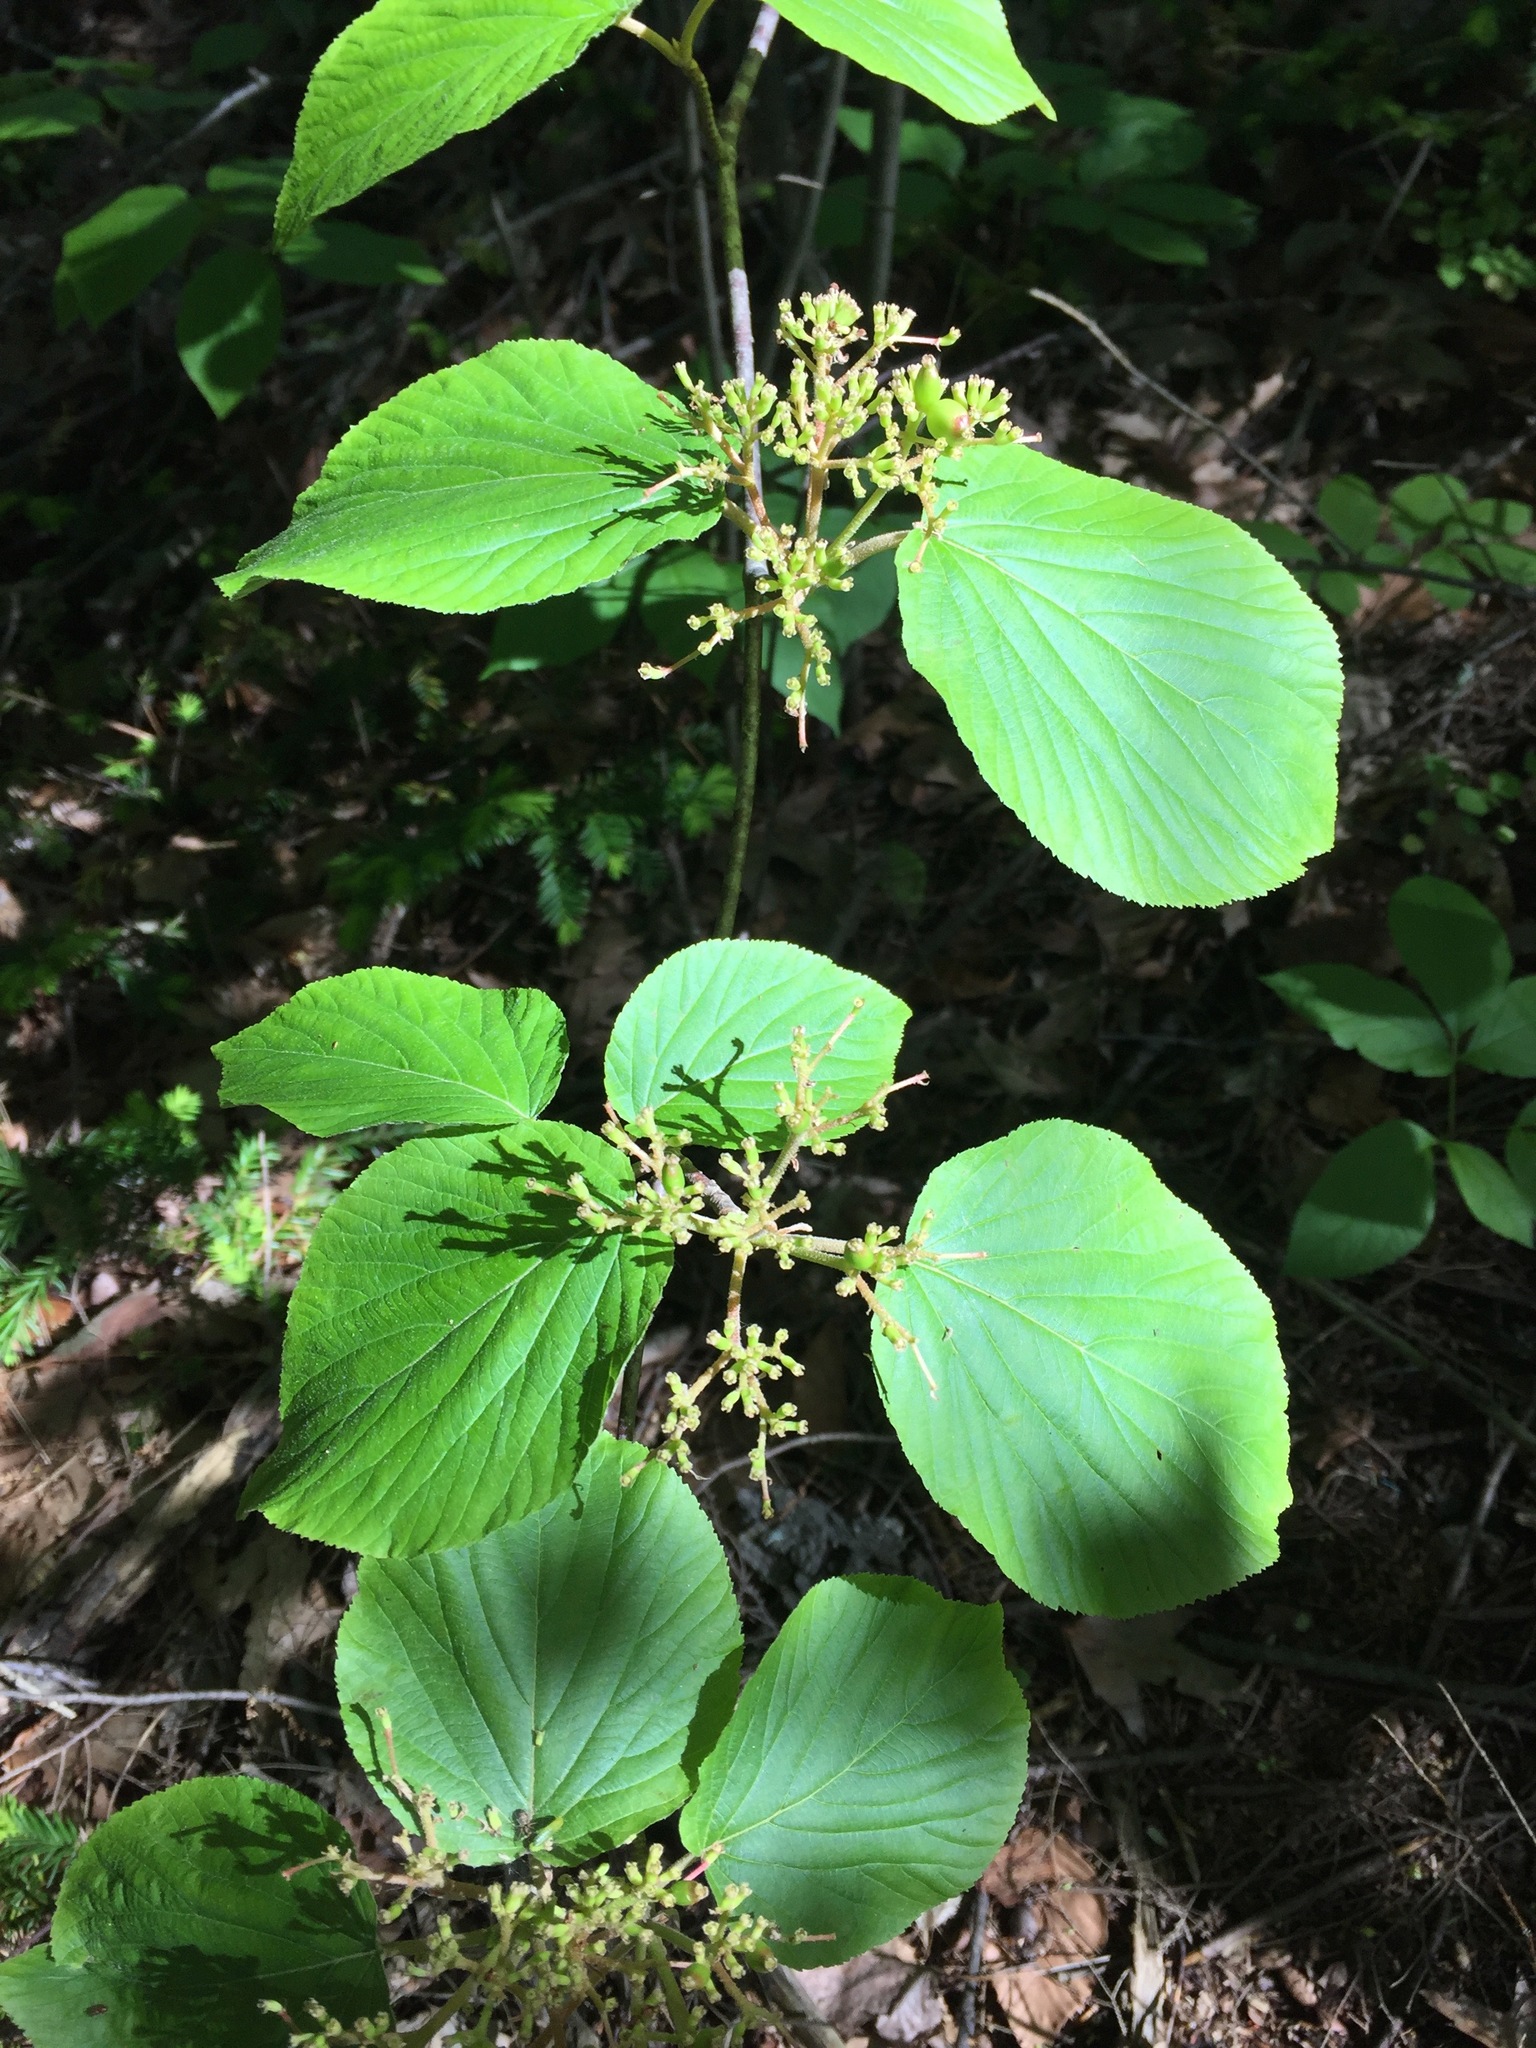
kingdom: Plantae
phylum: Tracheophyta
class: Magnoliopsida
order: Dipsacales
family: Viburnaceae
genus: Viburnum
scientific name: Viburnum lantanoides
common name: Hobblebush
